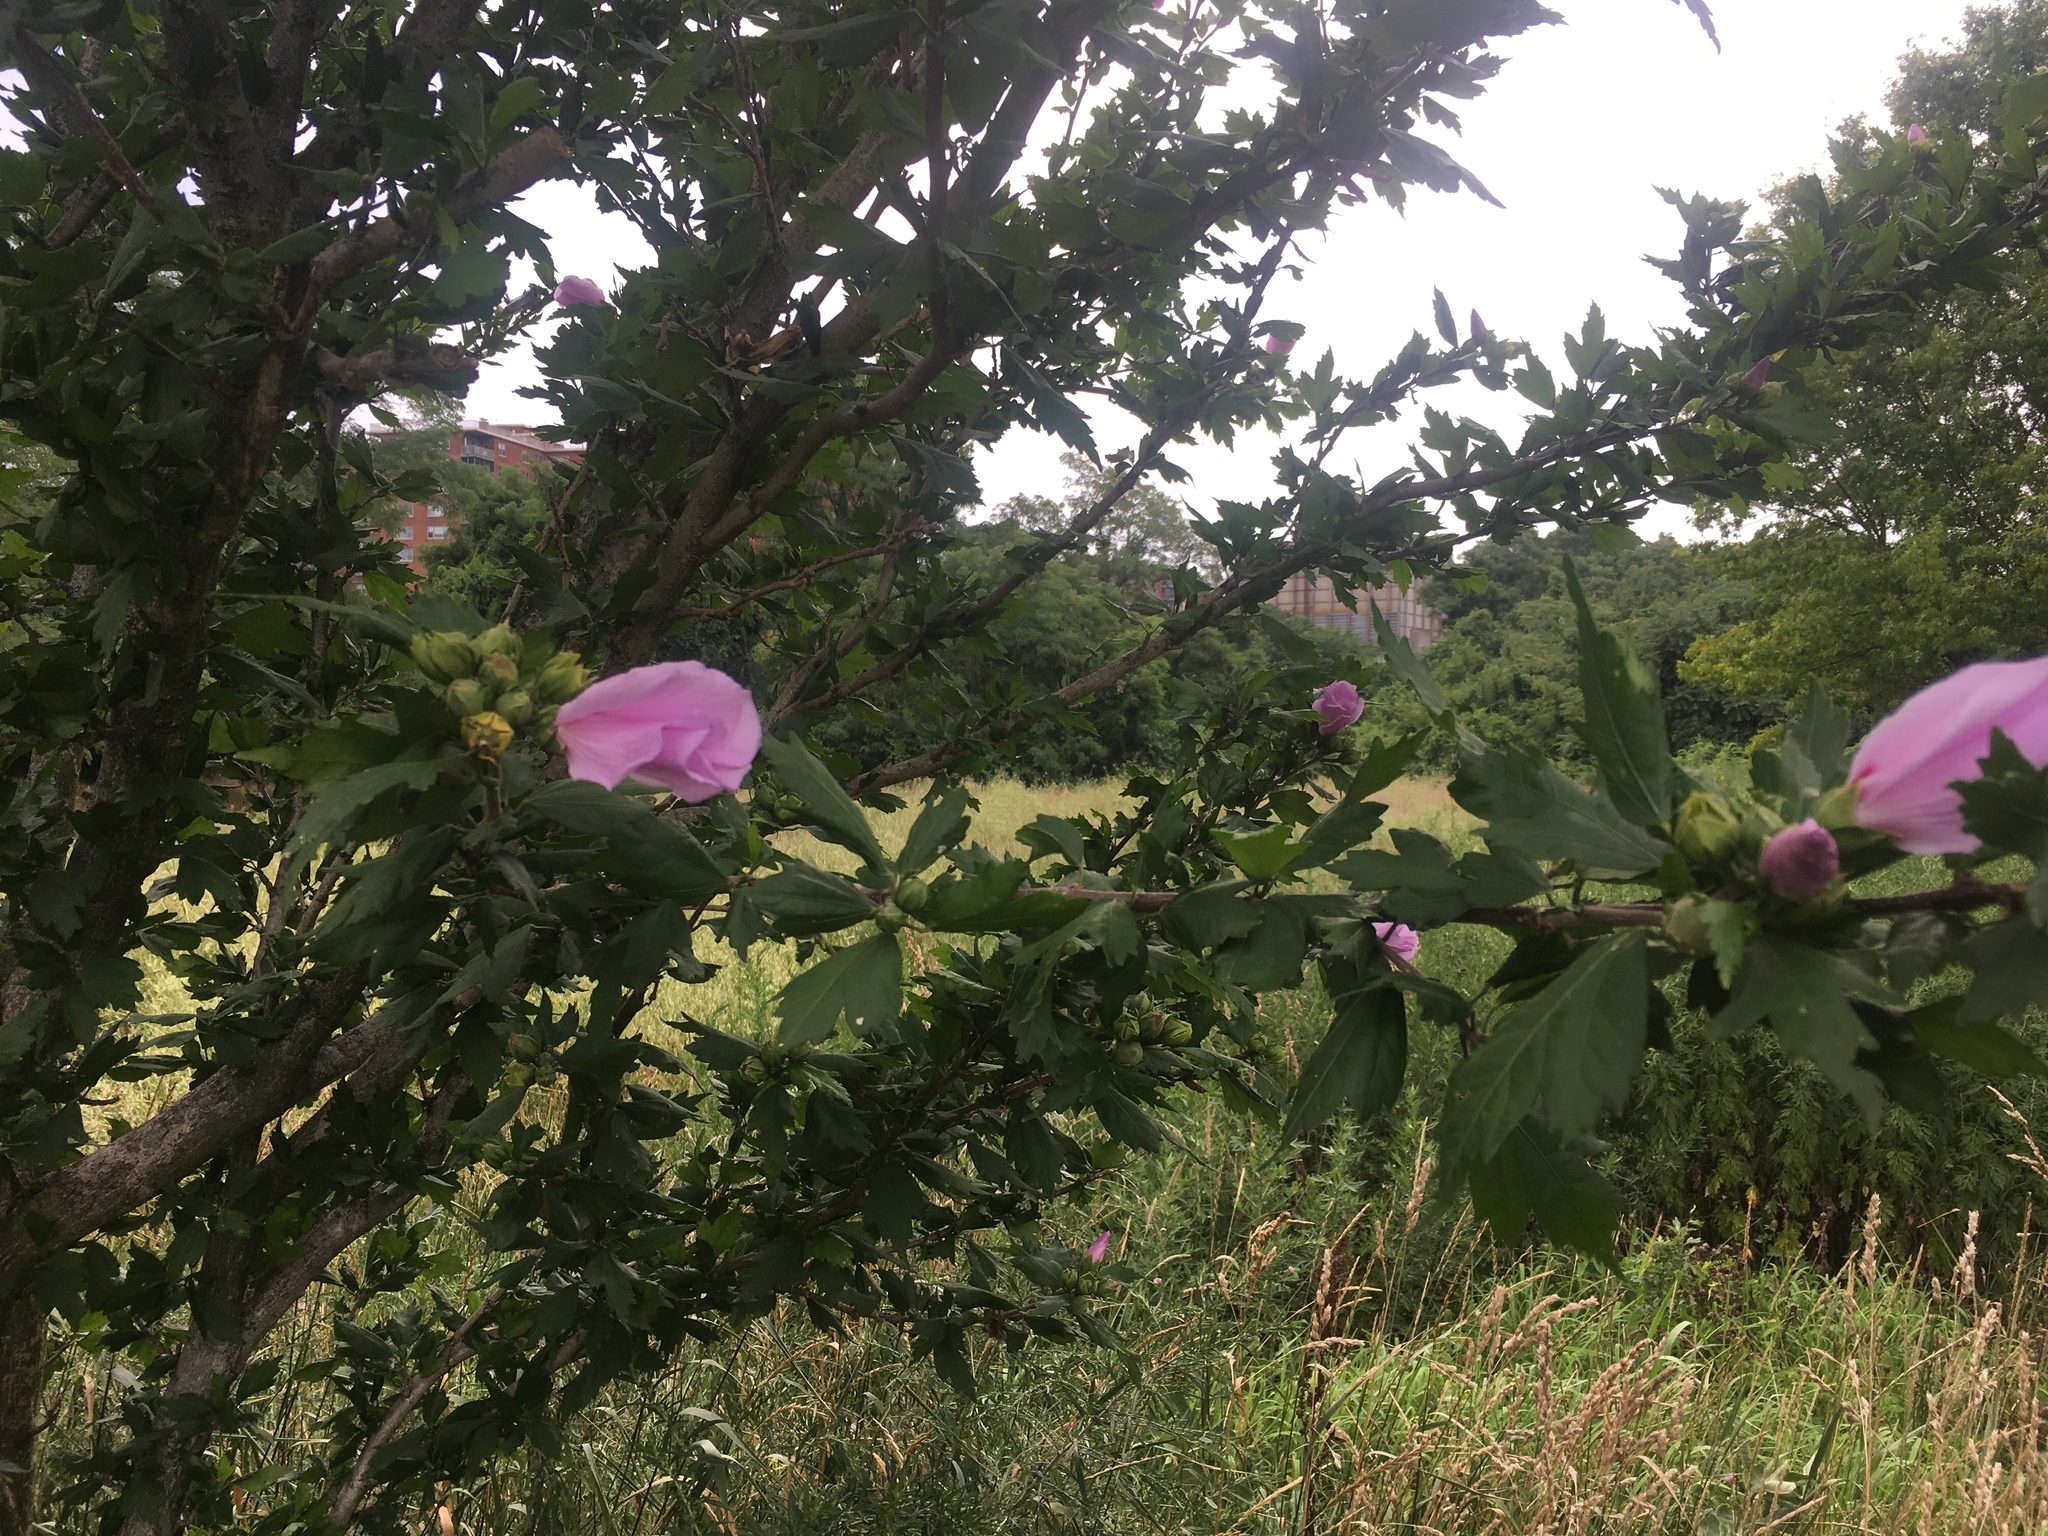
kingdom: Plantae
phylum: Tracheophyta
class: Magnoliopsida
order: Malvales
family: Malvaceae
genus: Hibiscus
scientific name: Hibiscus syriacus
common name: Syrian ketmia
